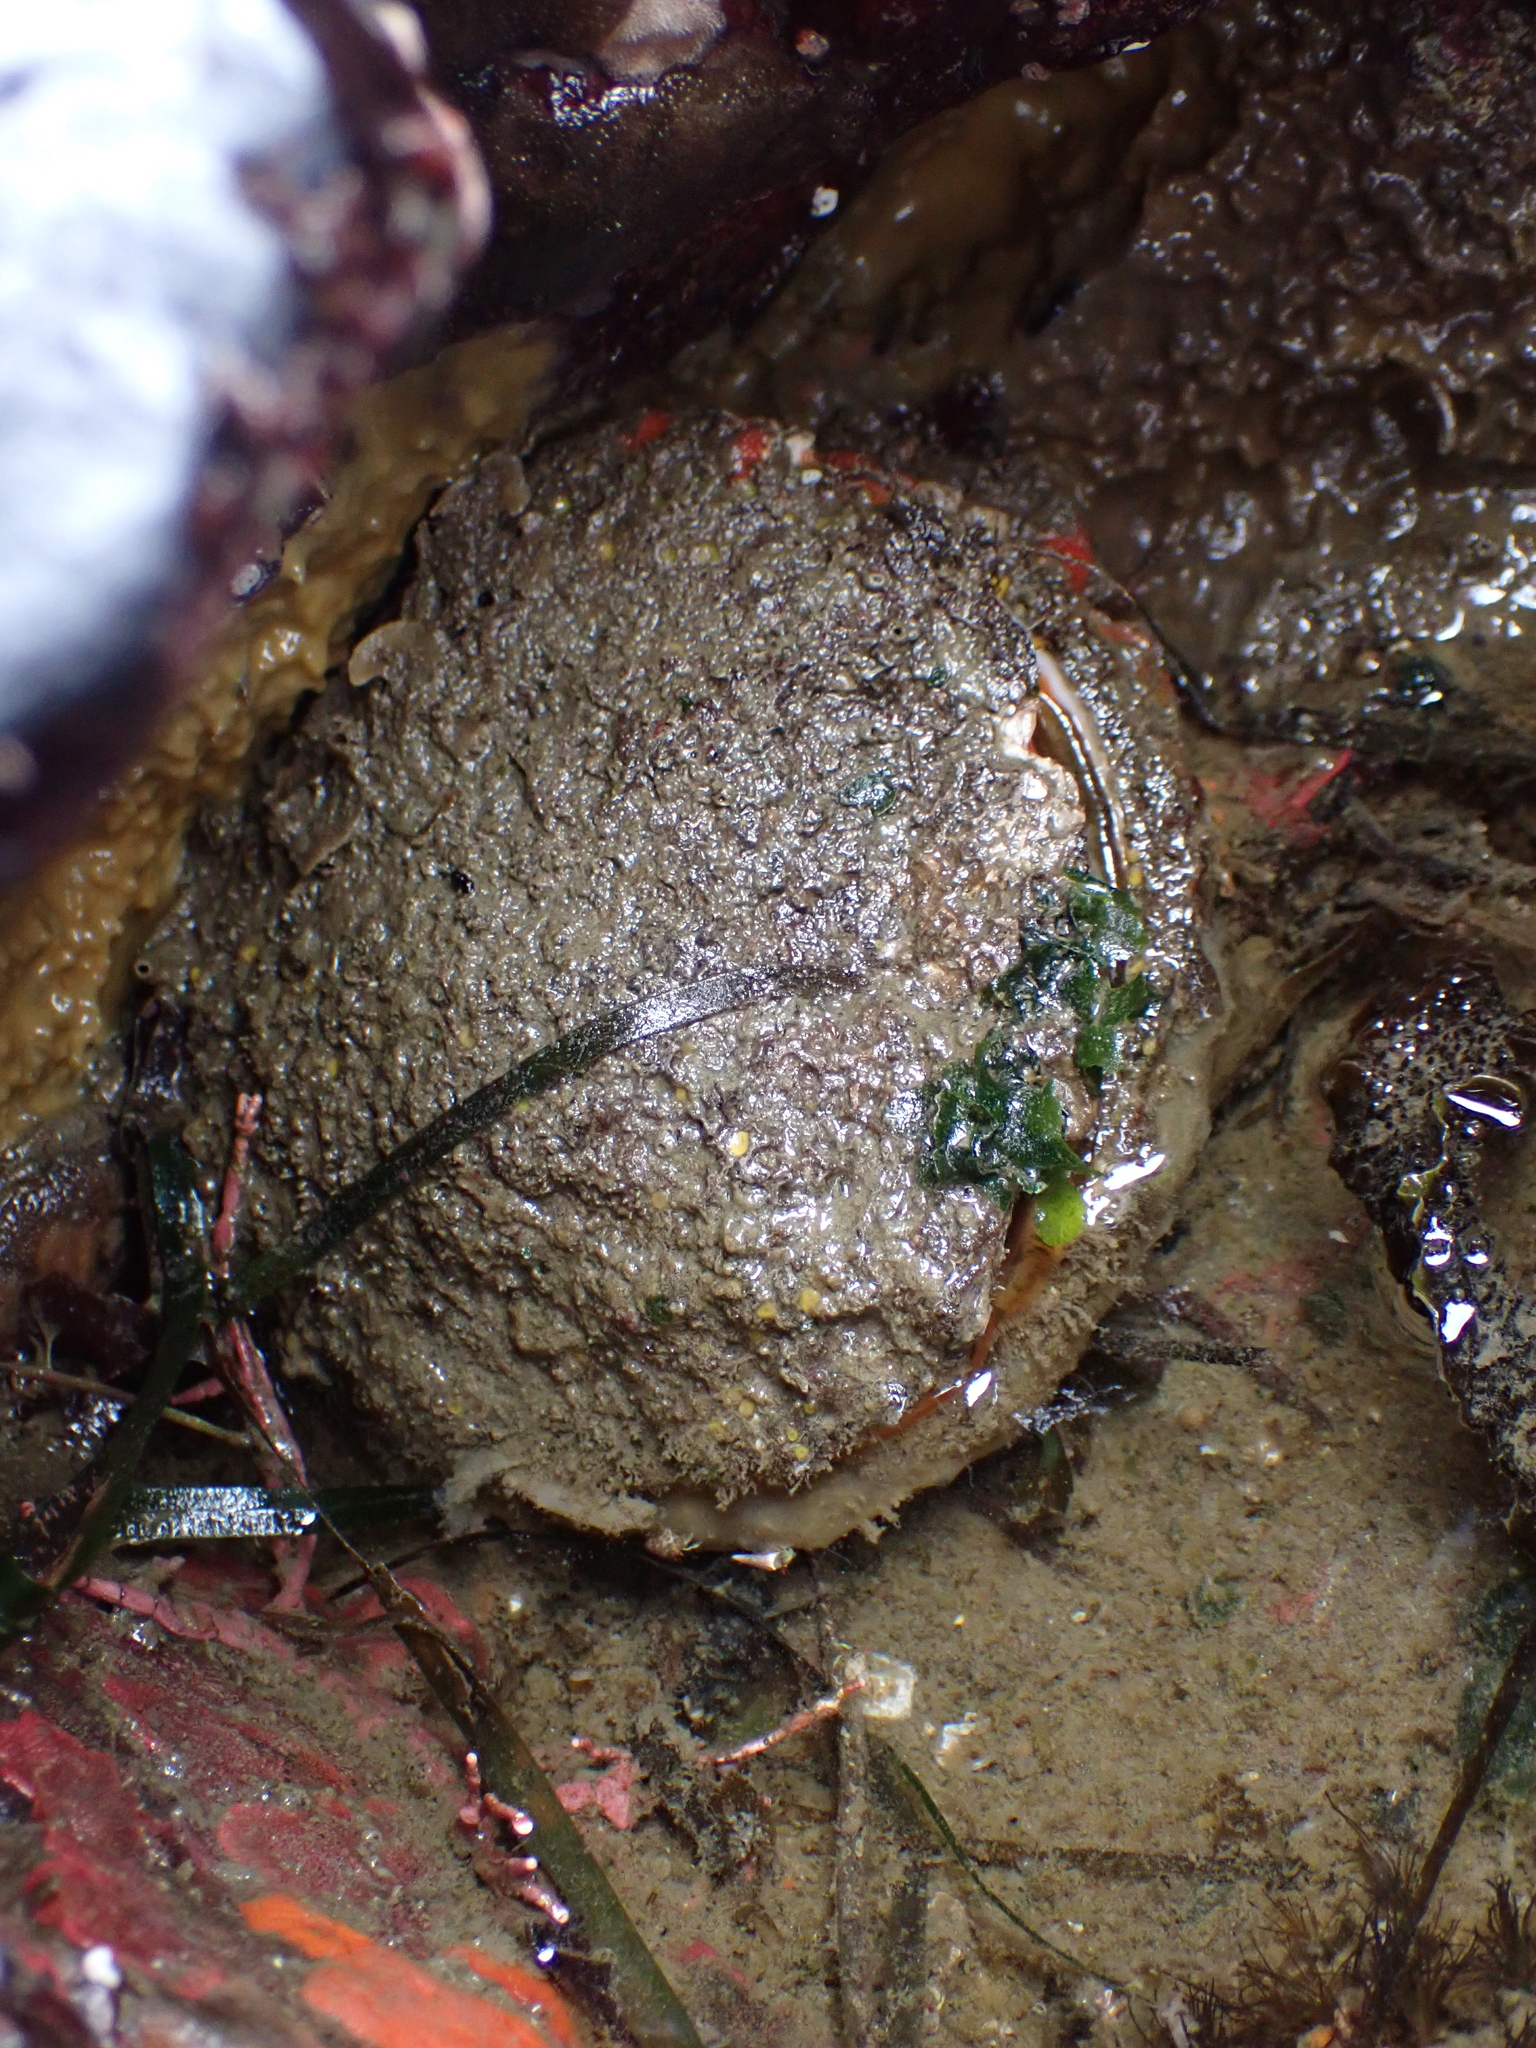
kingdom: Animalia
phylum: Mollusca
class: Bivalvia
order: Pectinida
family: Pectinidae
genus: Crassadoma
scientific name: Crassadoma gigantea
